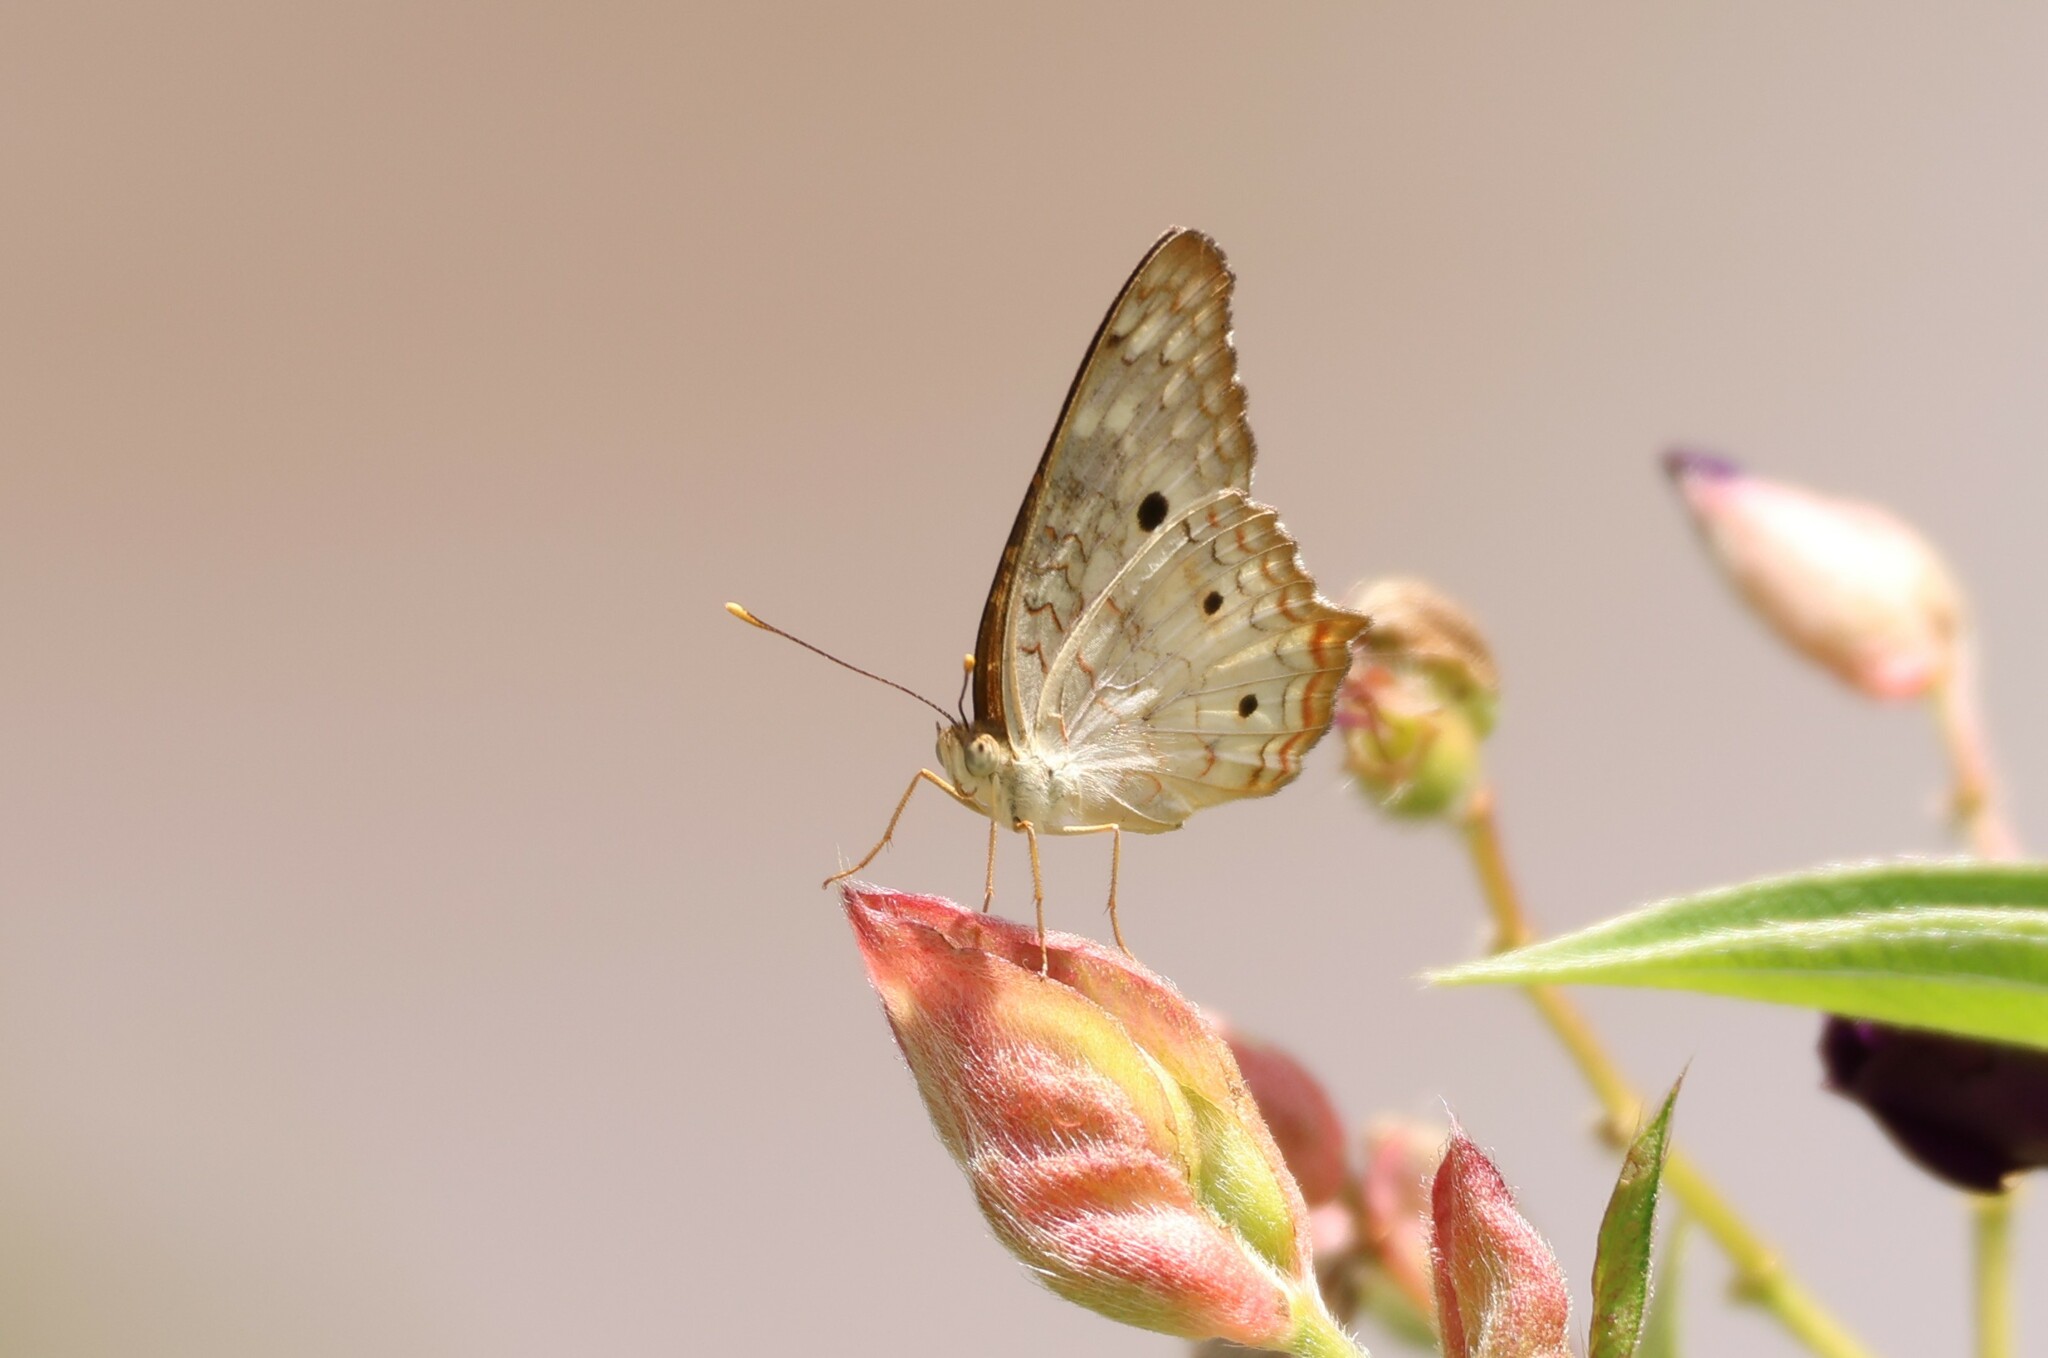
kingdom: Animalia
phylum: Arthropoda
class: Insecta
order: Lepidoptera
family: Nymphalidae
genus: Anartia
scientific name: Anartia jatrophae
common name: White peacock
